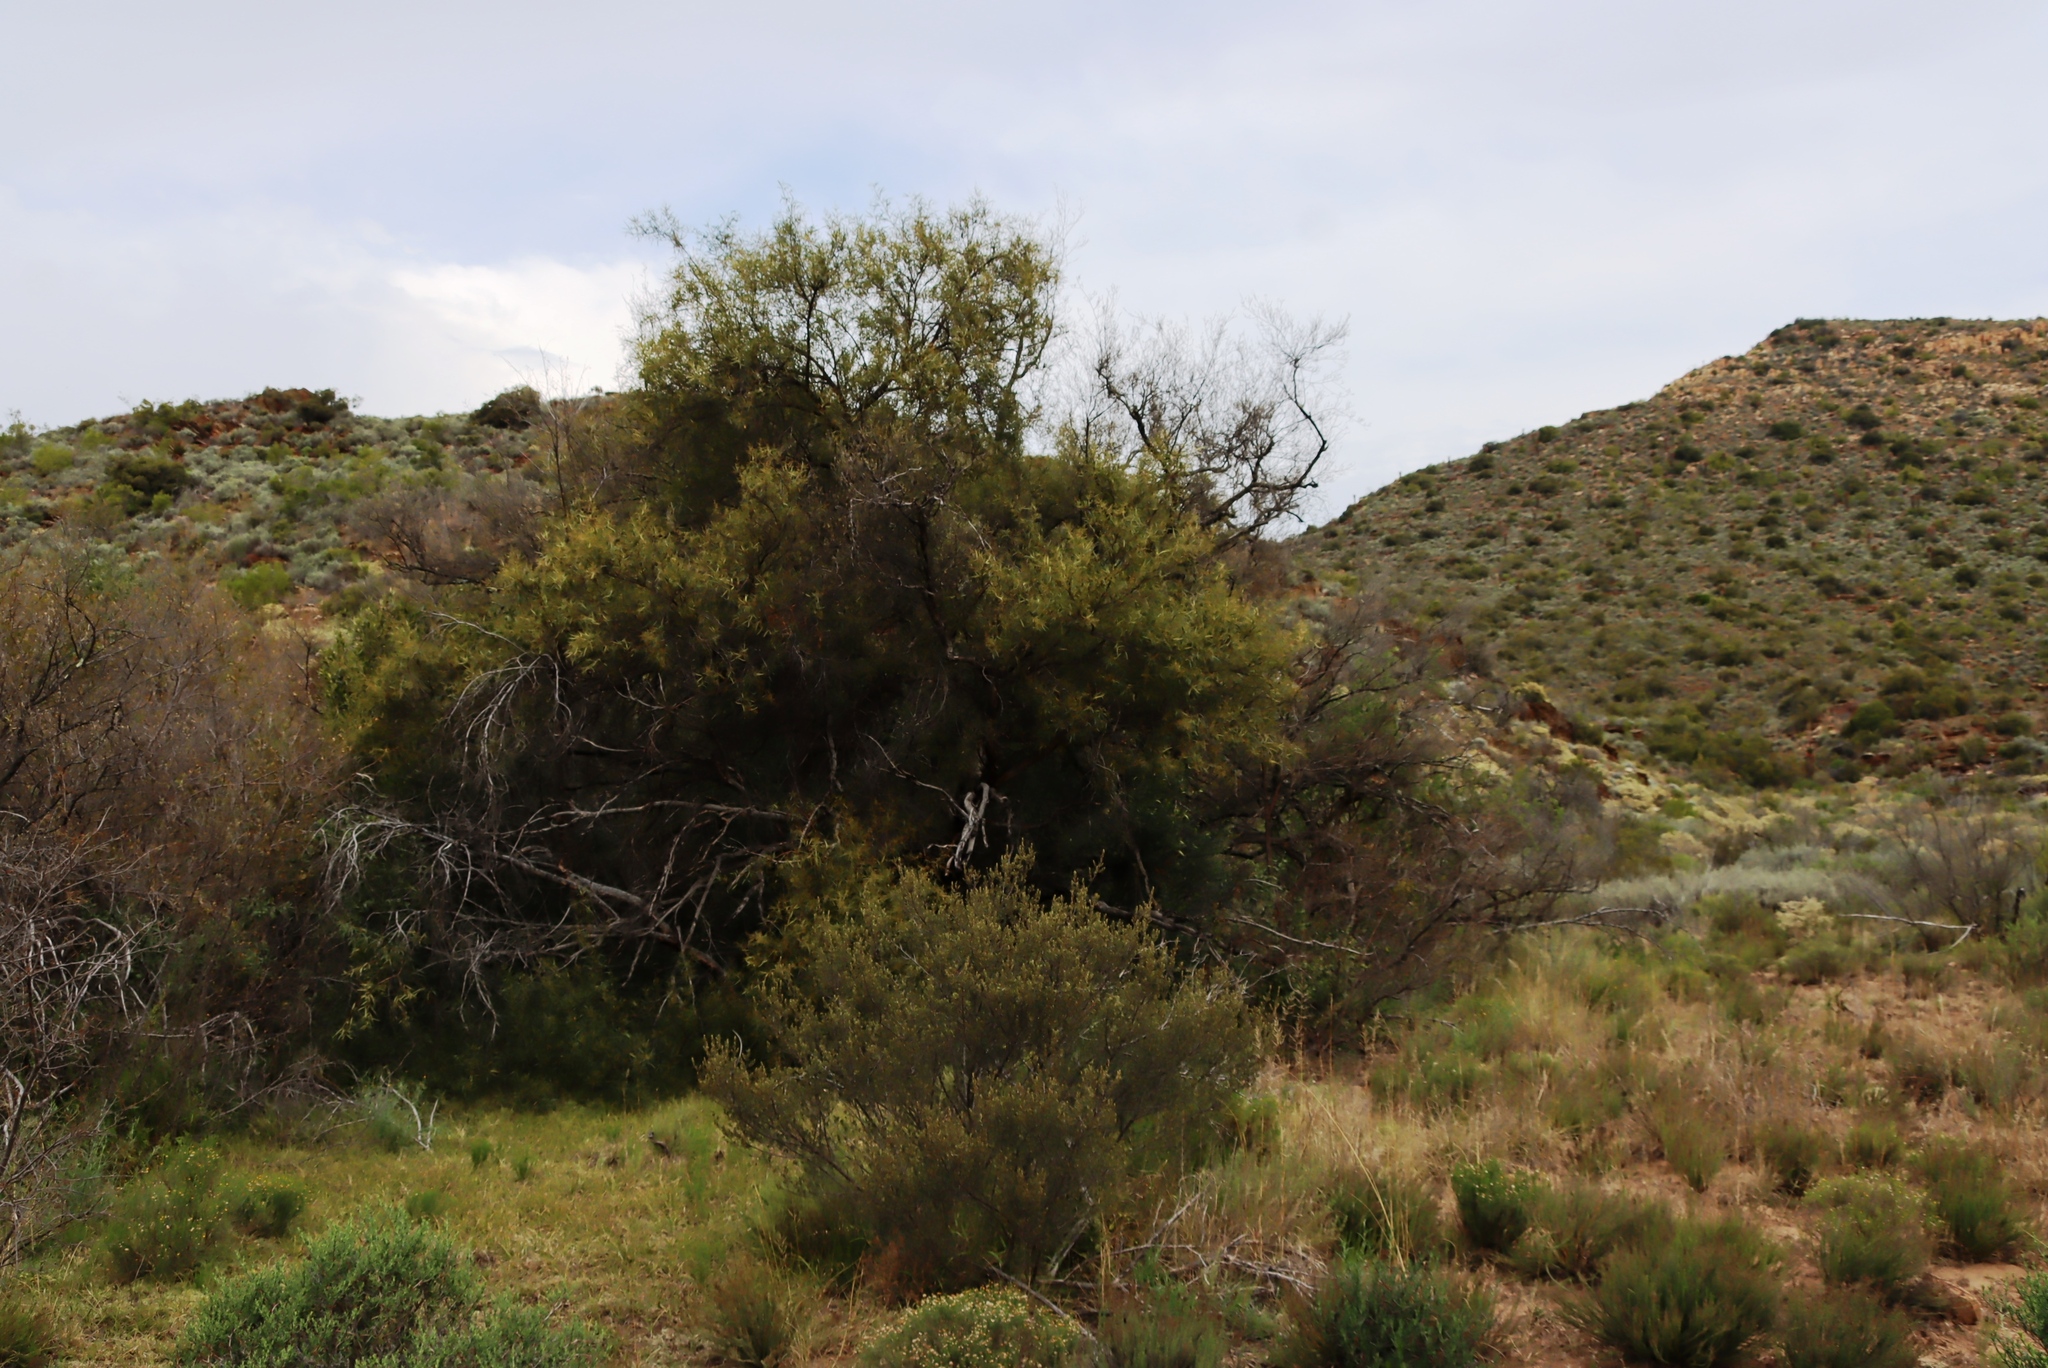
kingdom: Plantae
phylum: Tracheophyta
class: Magnoliopsida
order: Sapindales
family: Anacardiaceae
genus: Searsia
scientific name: Searsia lancea
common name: Cashew
